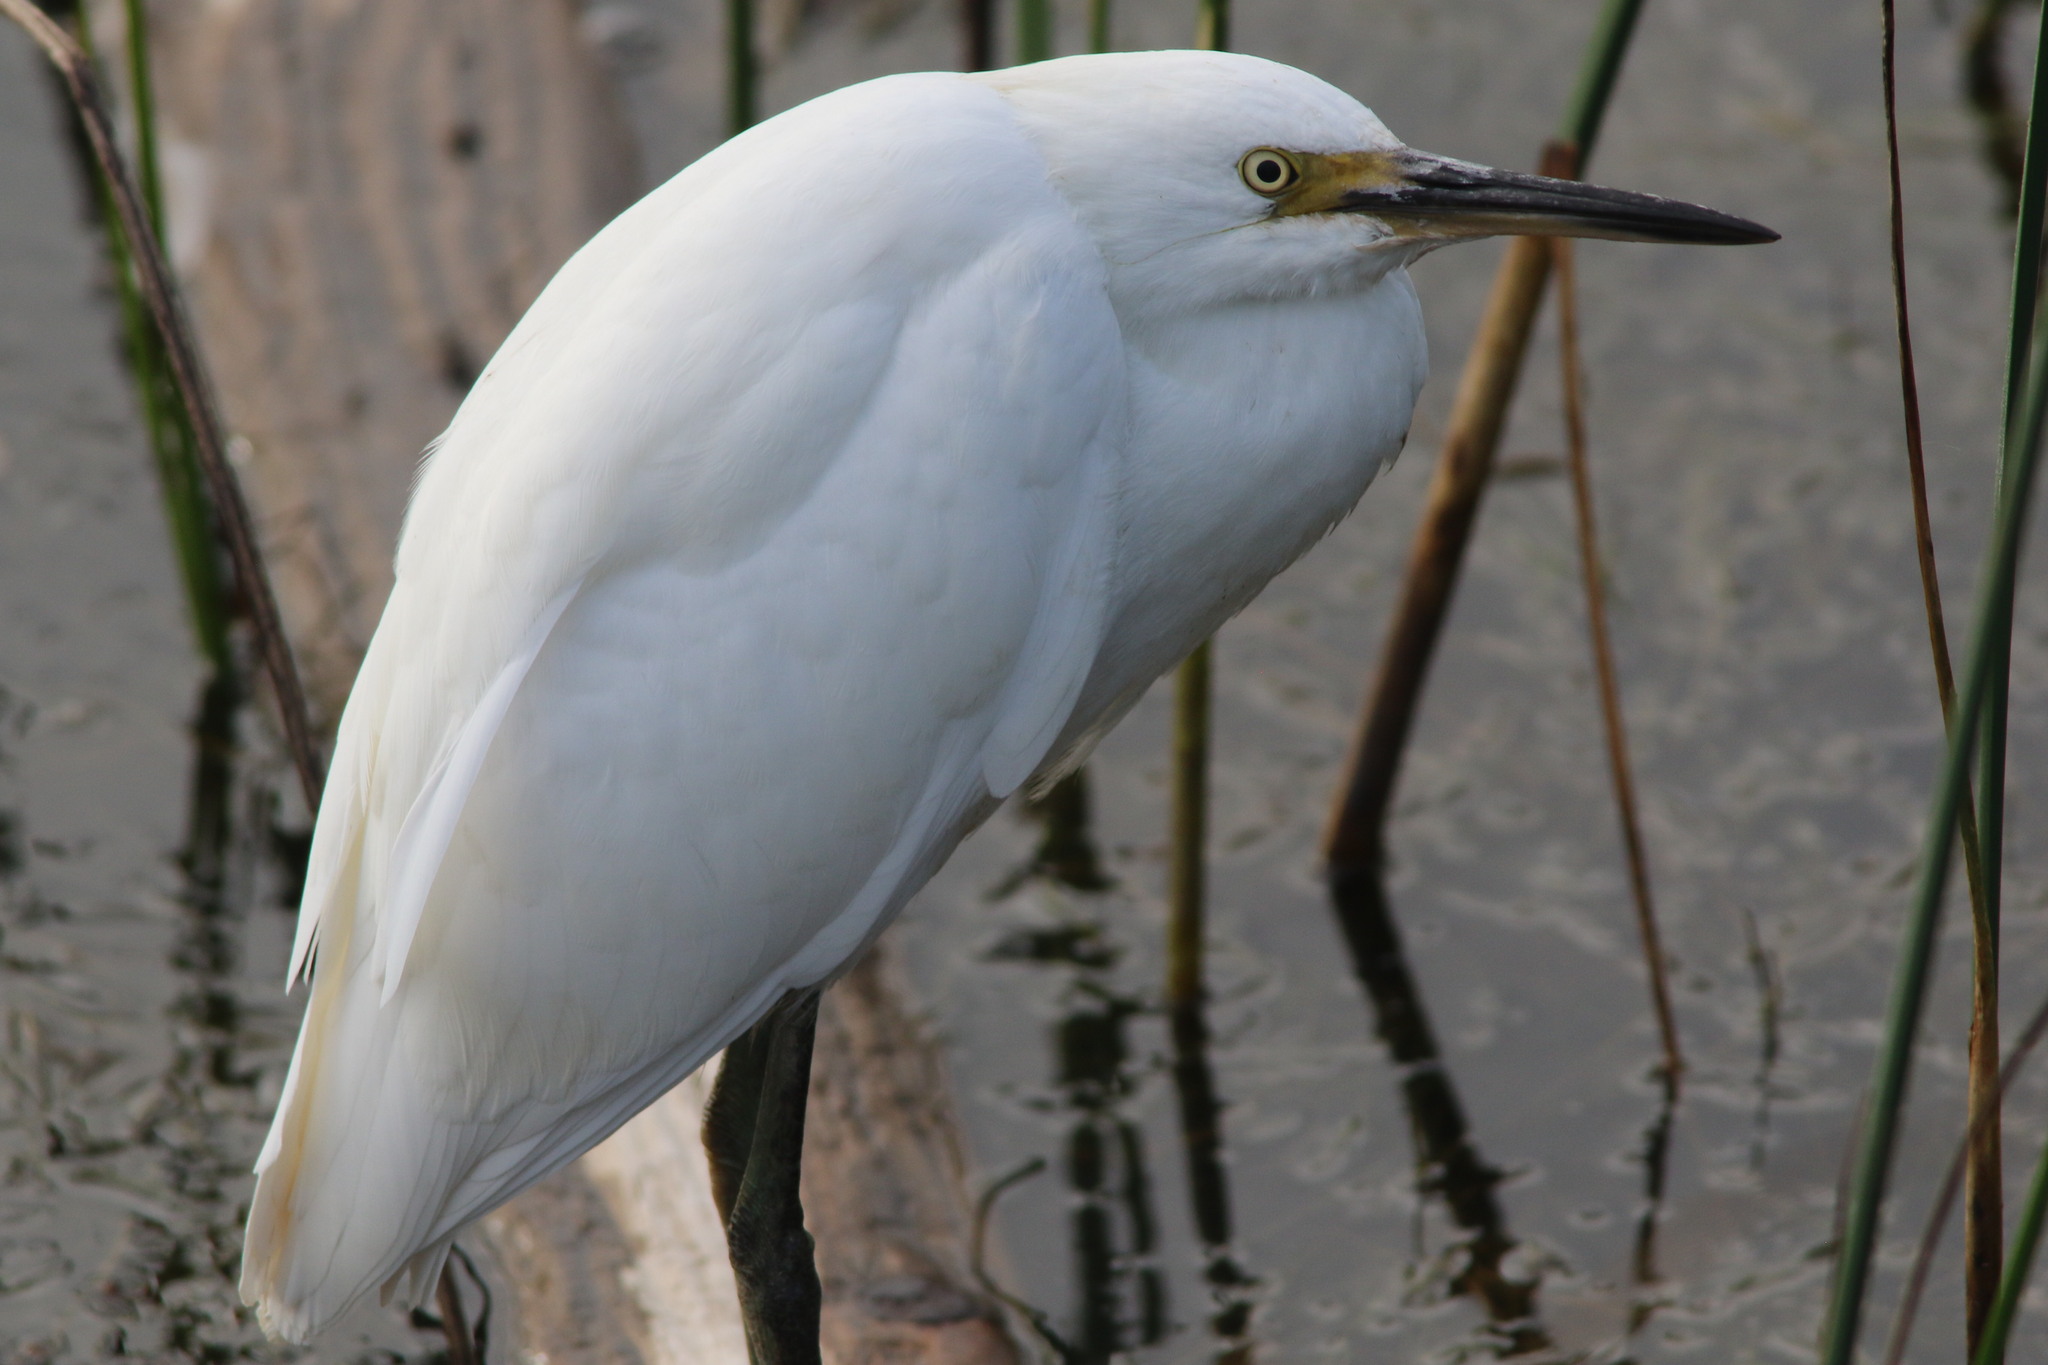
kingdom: Animalia
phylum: Chordata
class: Aves
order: Pelecaniformes
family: Ardeidae
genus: Egretta
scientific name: Egretta thula
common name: Snowy egret
